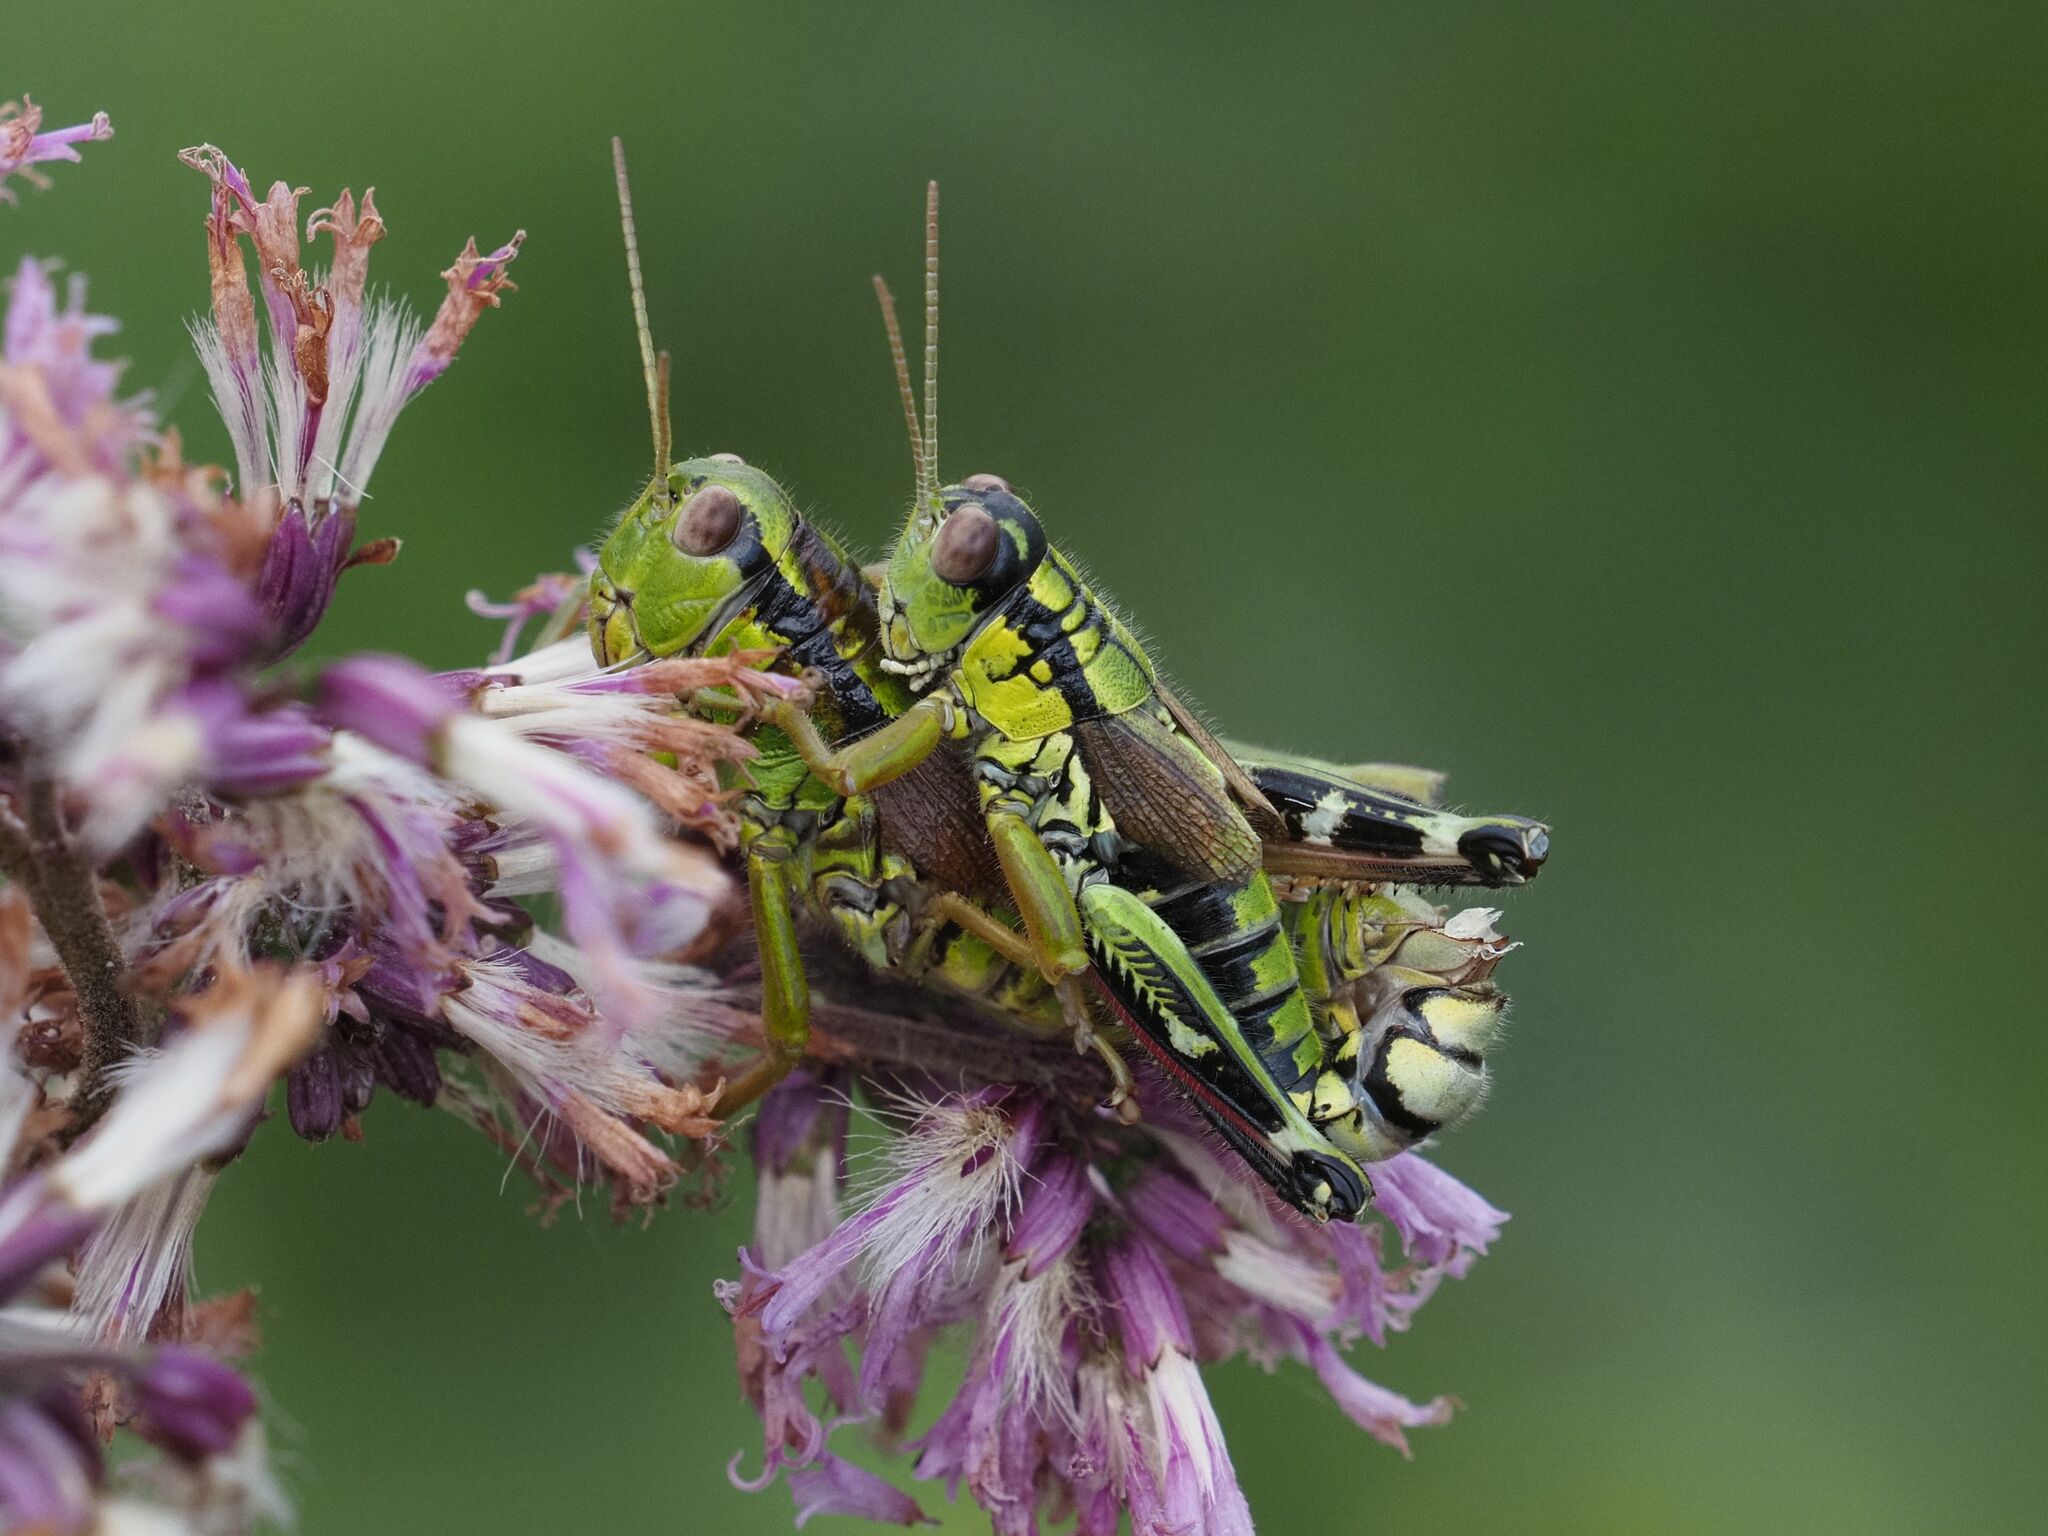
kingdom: Animalia
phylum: Arthropoda
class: Insecta
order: Orthoptera
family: Acrididae
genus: Miramella
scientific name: Miramella alpina
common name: Green mountain grasshopper
